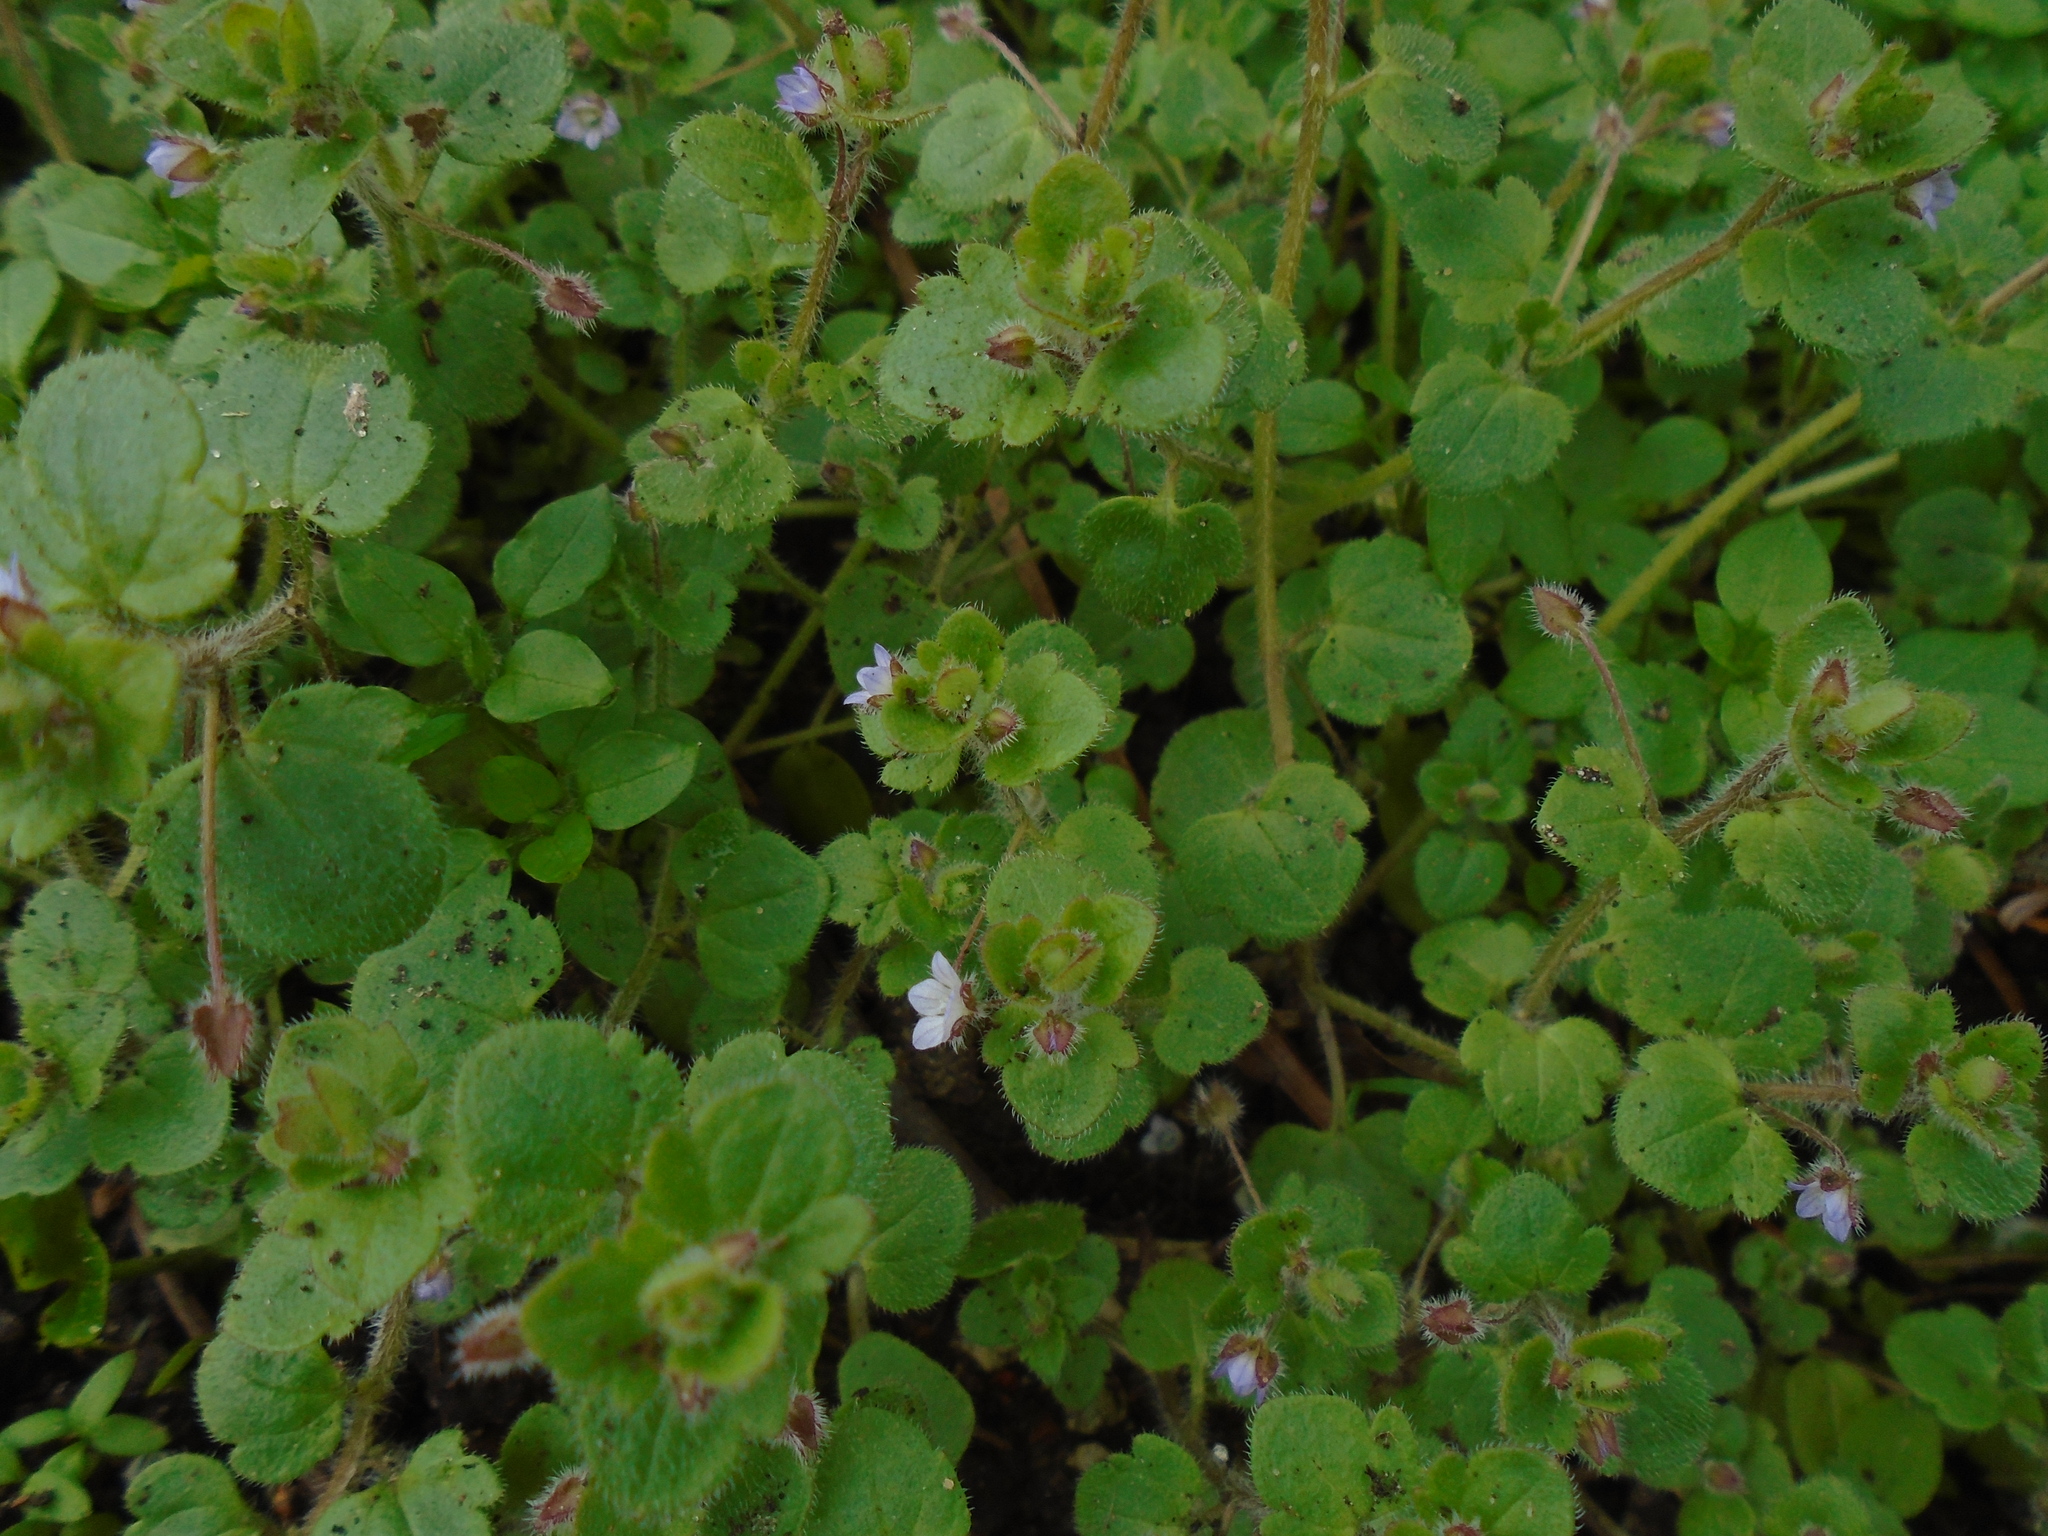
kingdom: Plantae
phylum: Tracheophyta
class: Magnoliopsida
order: Lamiales
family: Plantaginaceae
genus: Veronica
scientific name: Veronica sublobata
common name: False ivy-leaved speedwell
